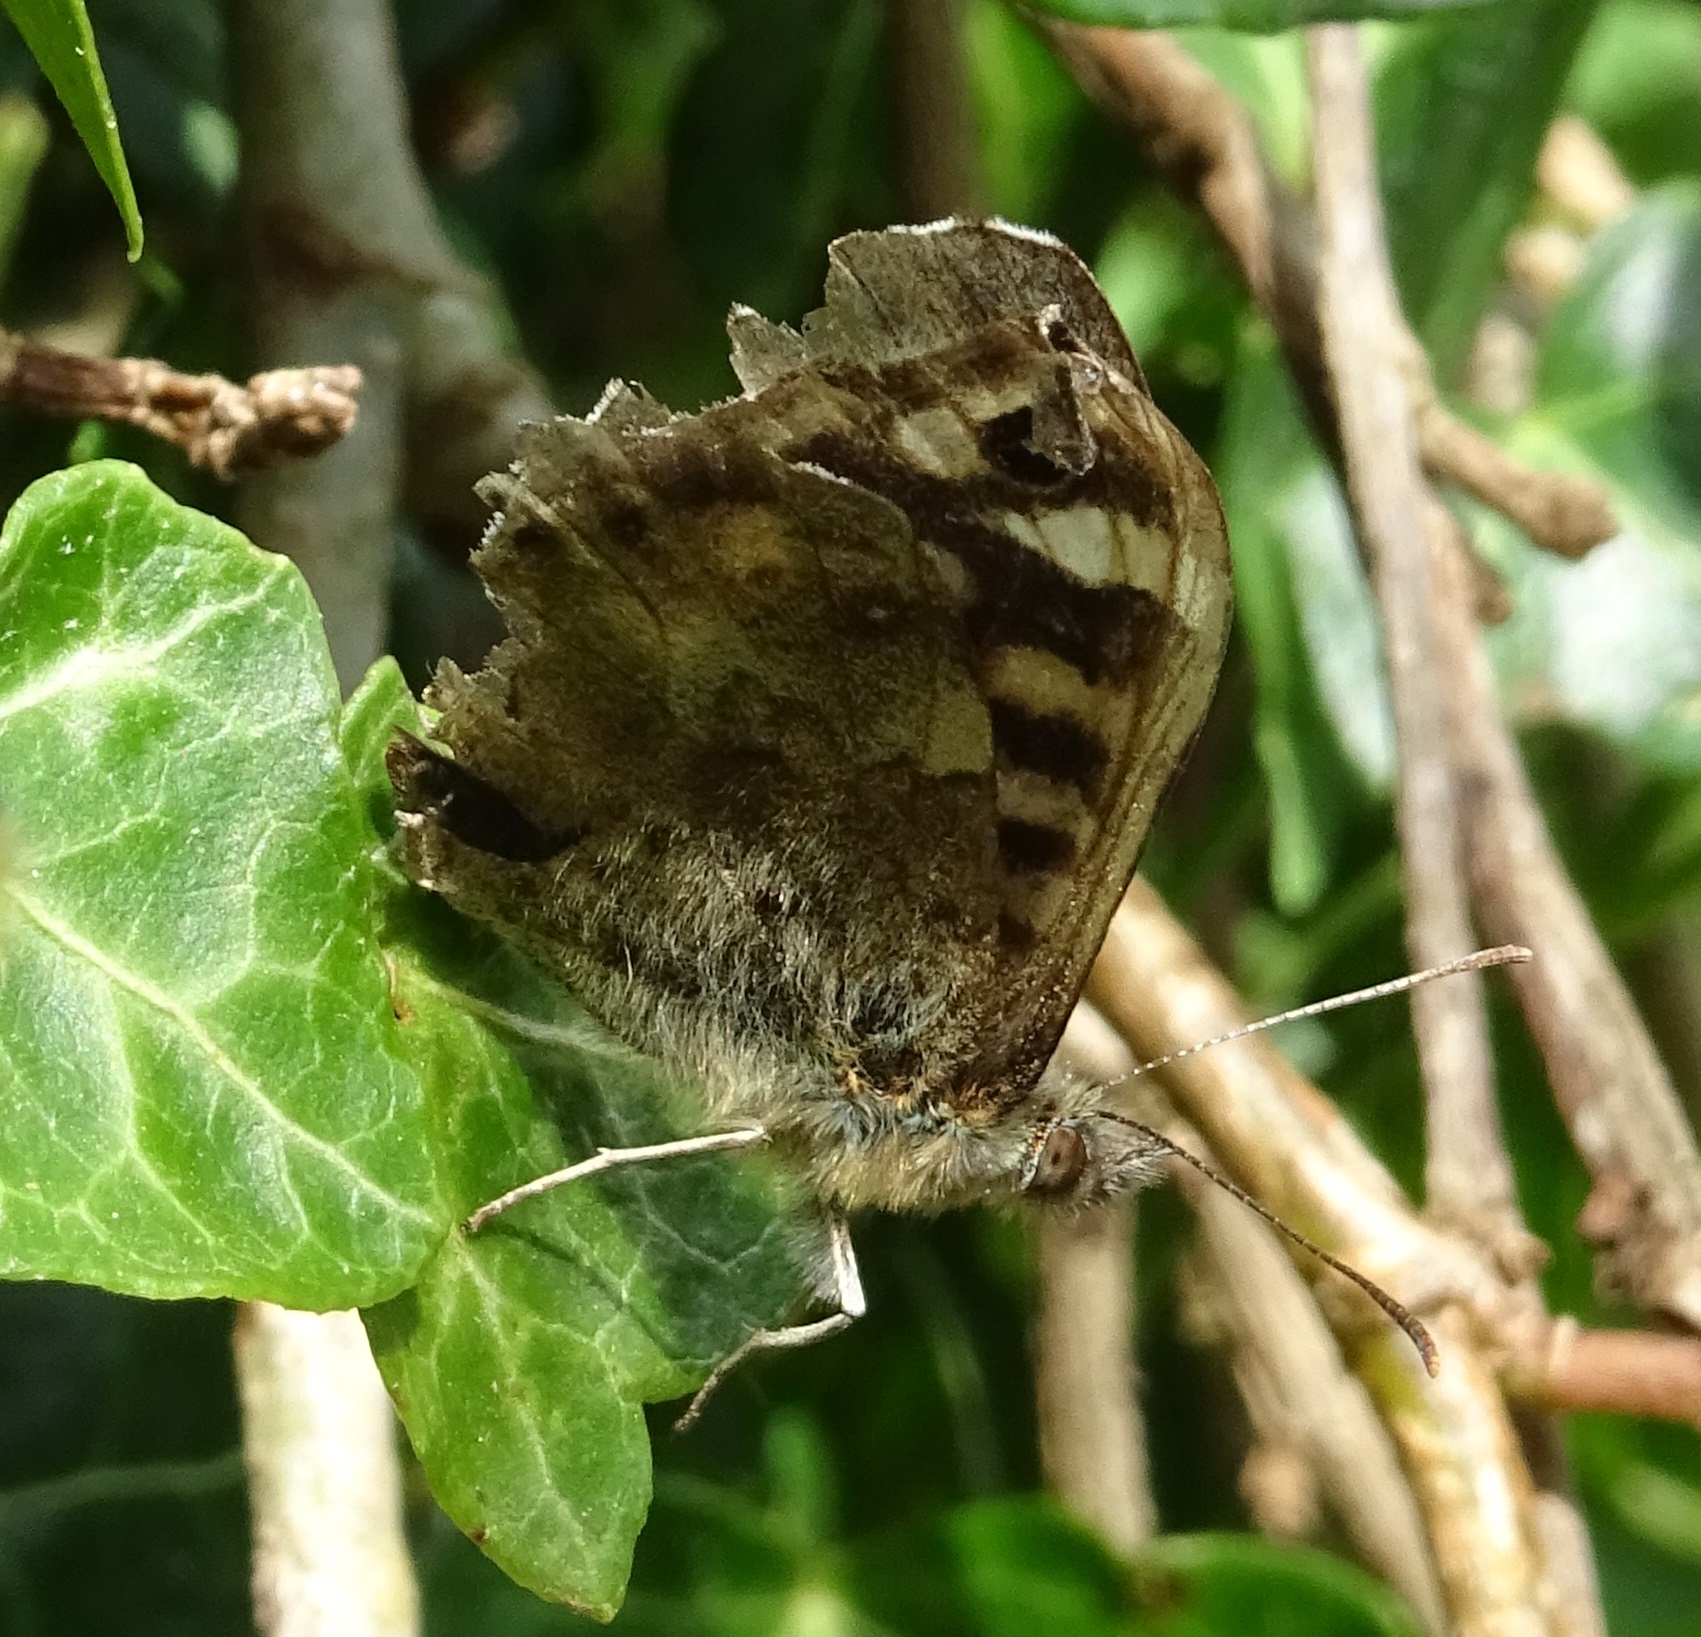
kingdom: Animalia
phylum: Arthropoda
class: Insecta
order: Lepidoptera
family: Nymphalidae
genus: Pararge
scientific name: Pararge aegeria
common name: Speckled wood
